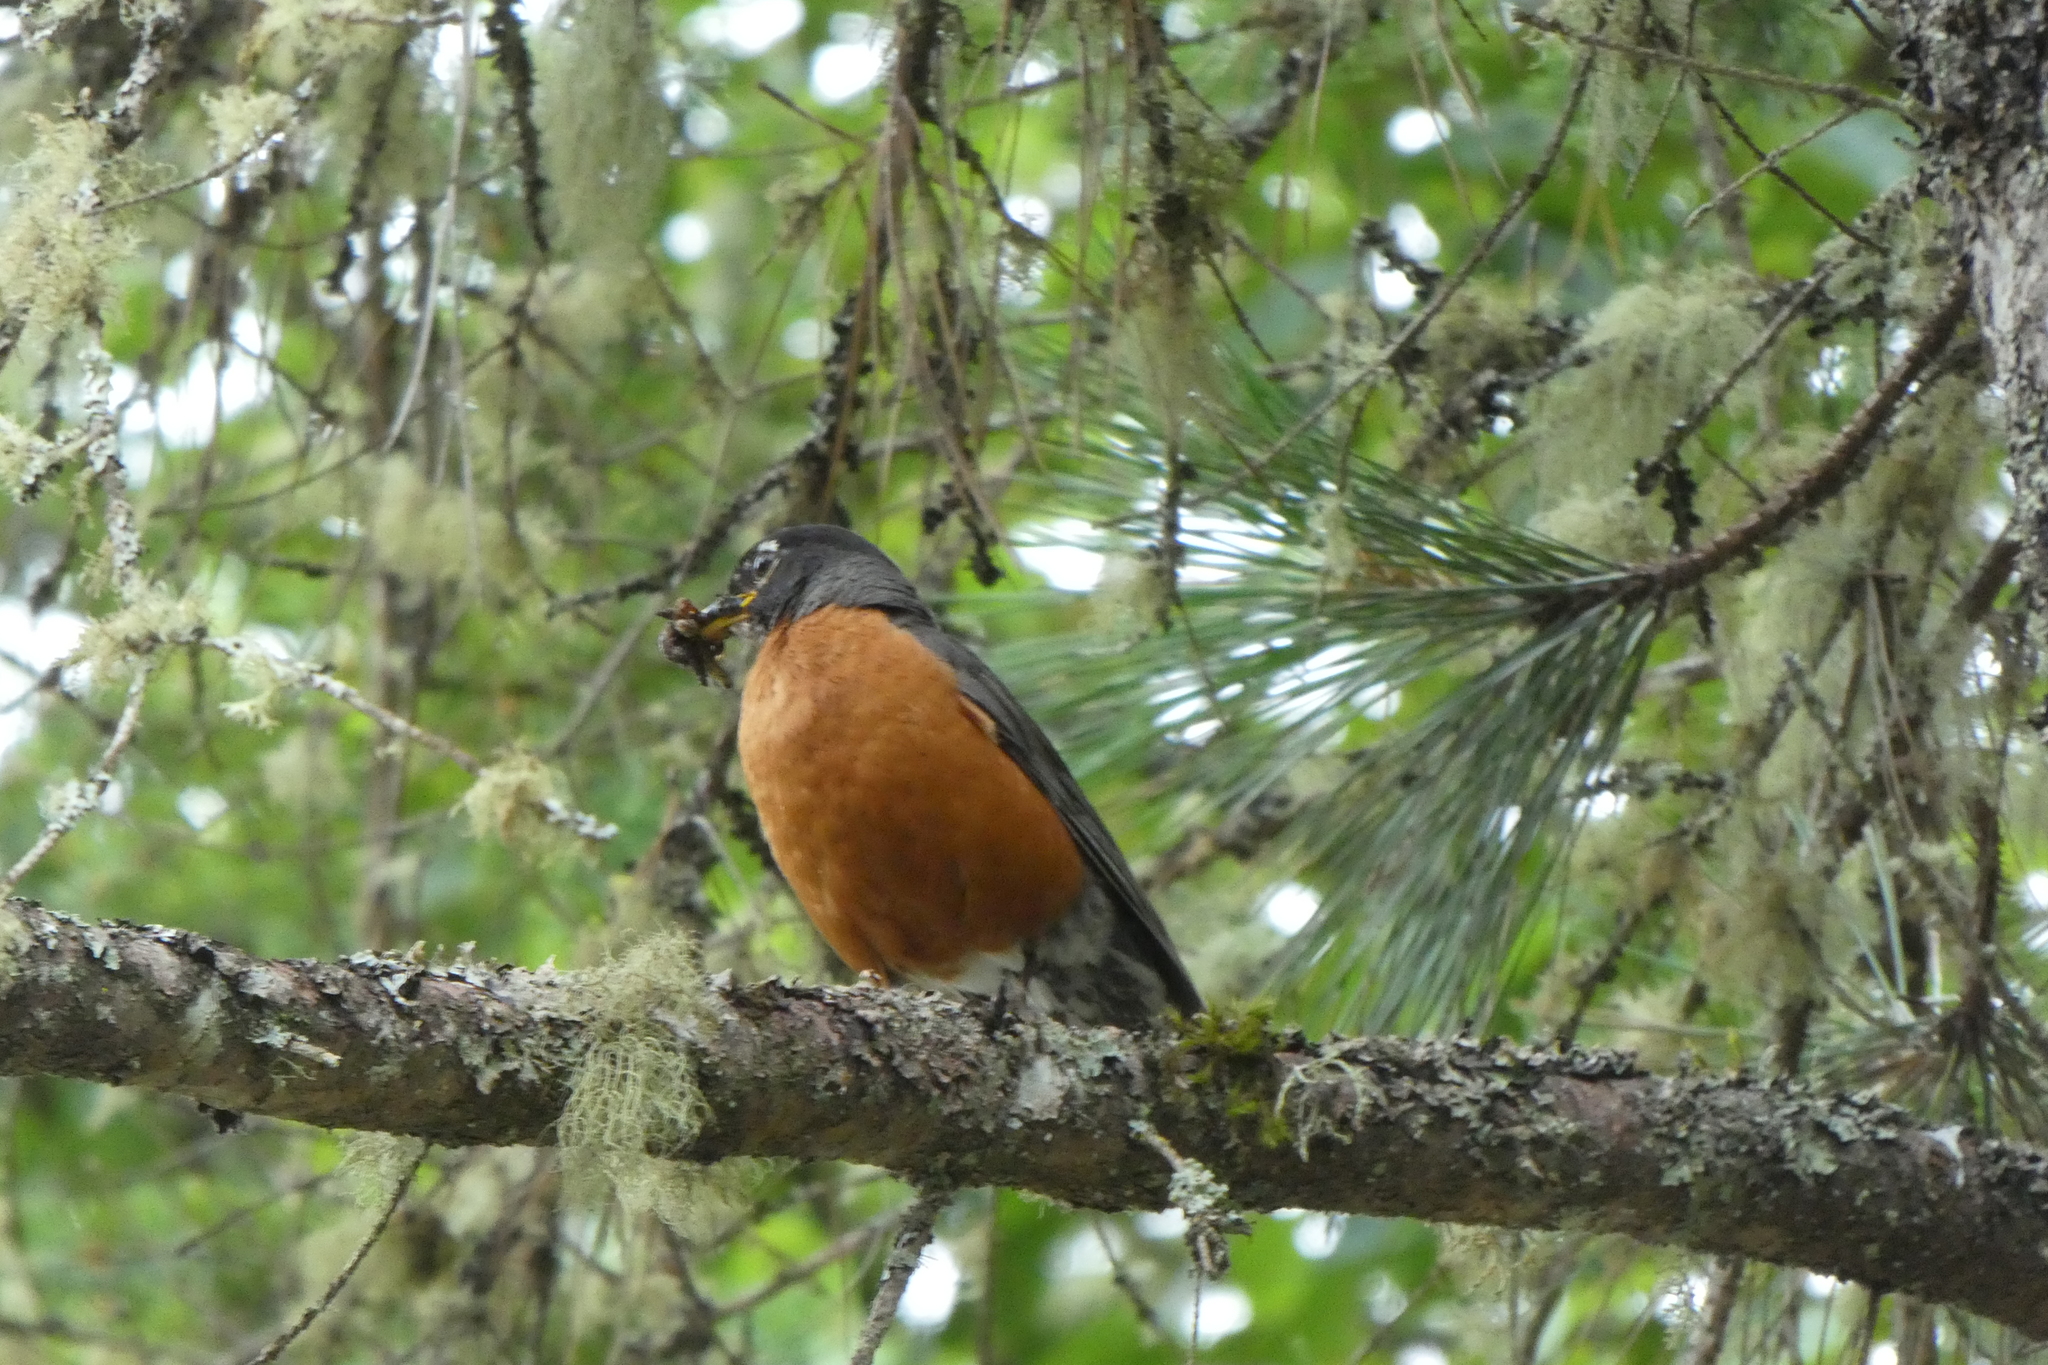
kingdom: Animalia
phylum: Chordata
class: Aves
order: Passeriformes
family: Turdidae
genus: Turdus
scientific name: Turdus migratorius
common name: American robin
